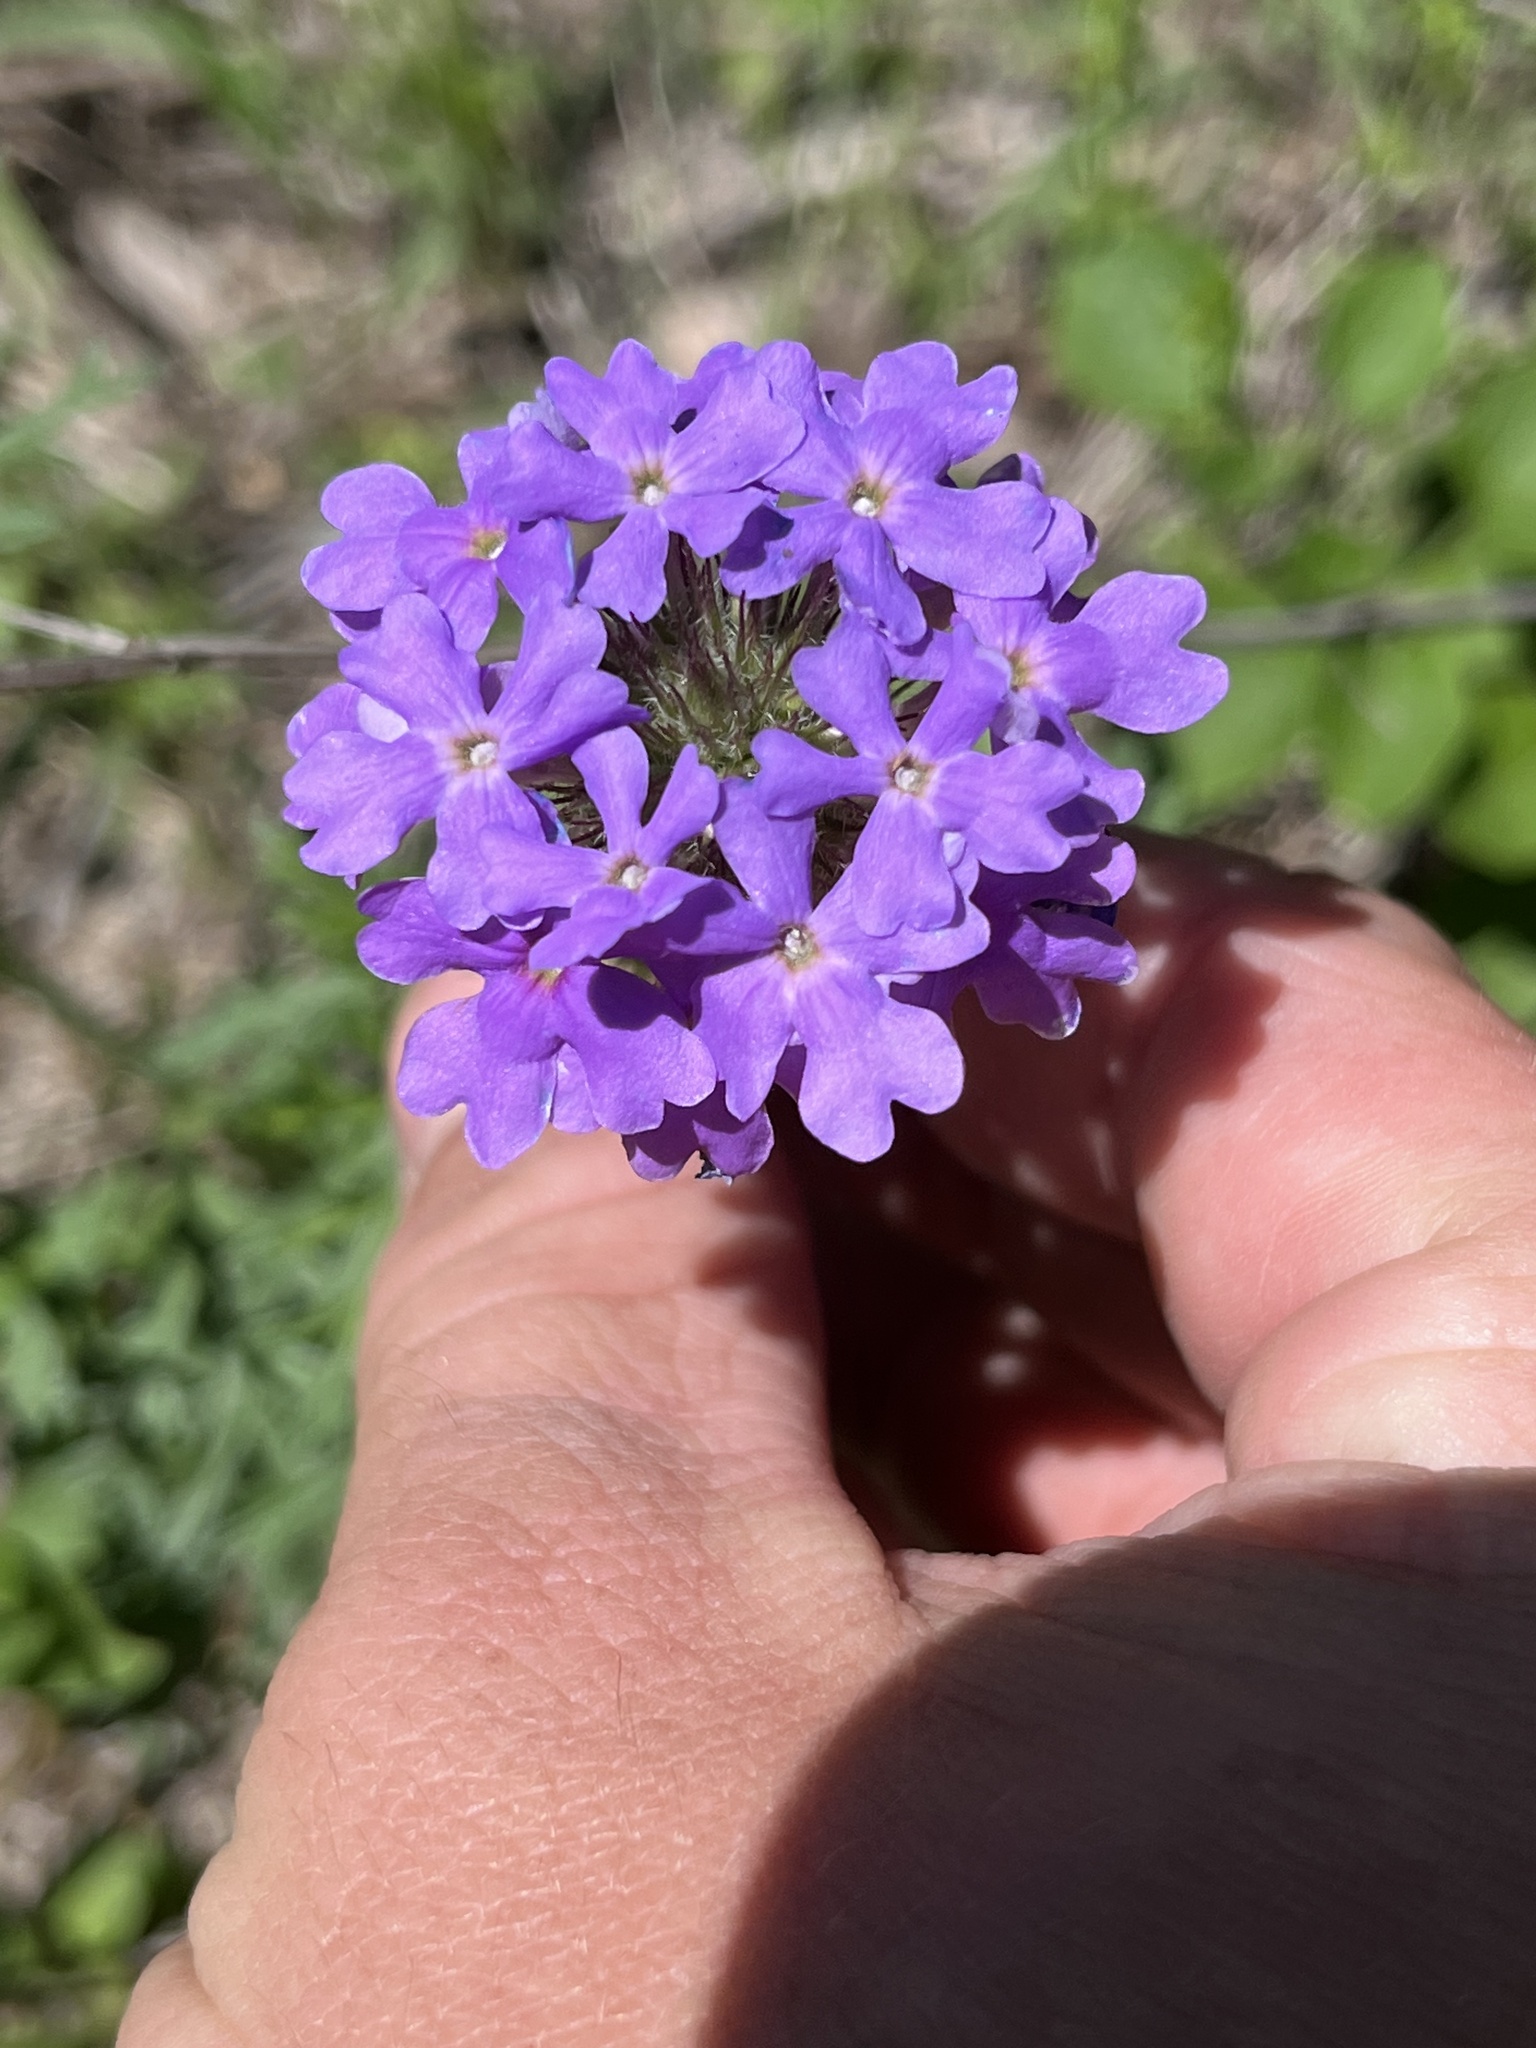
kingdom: Plantae
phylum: Tracheophyta
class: Magnoliopsida
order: Lamiales
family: Verbenaceae
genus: Verbena
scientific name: Verbena bipinnatifida
